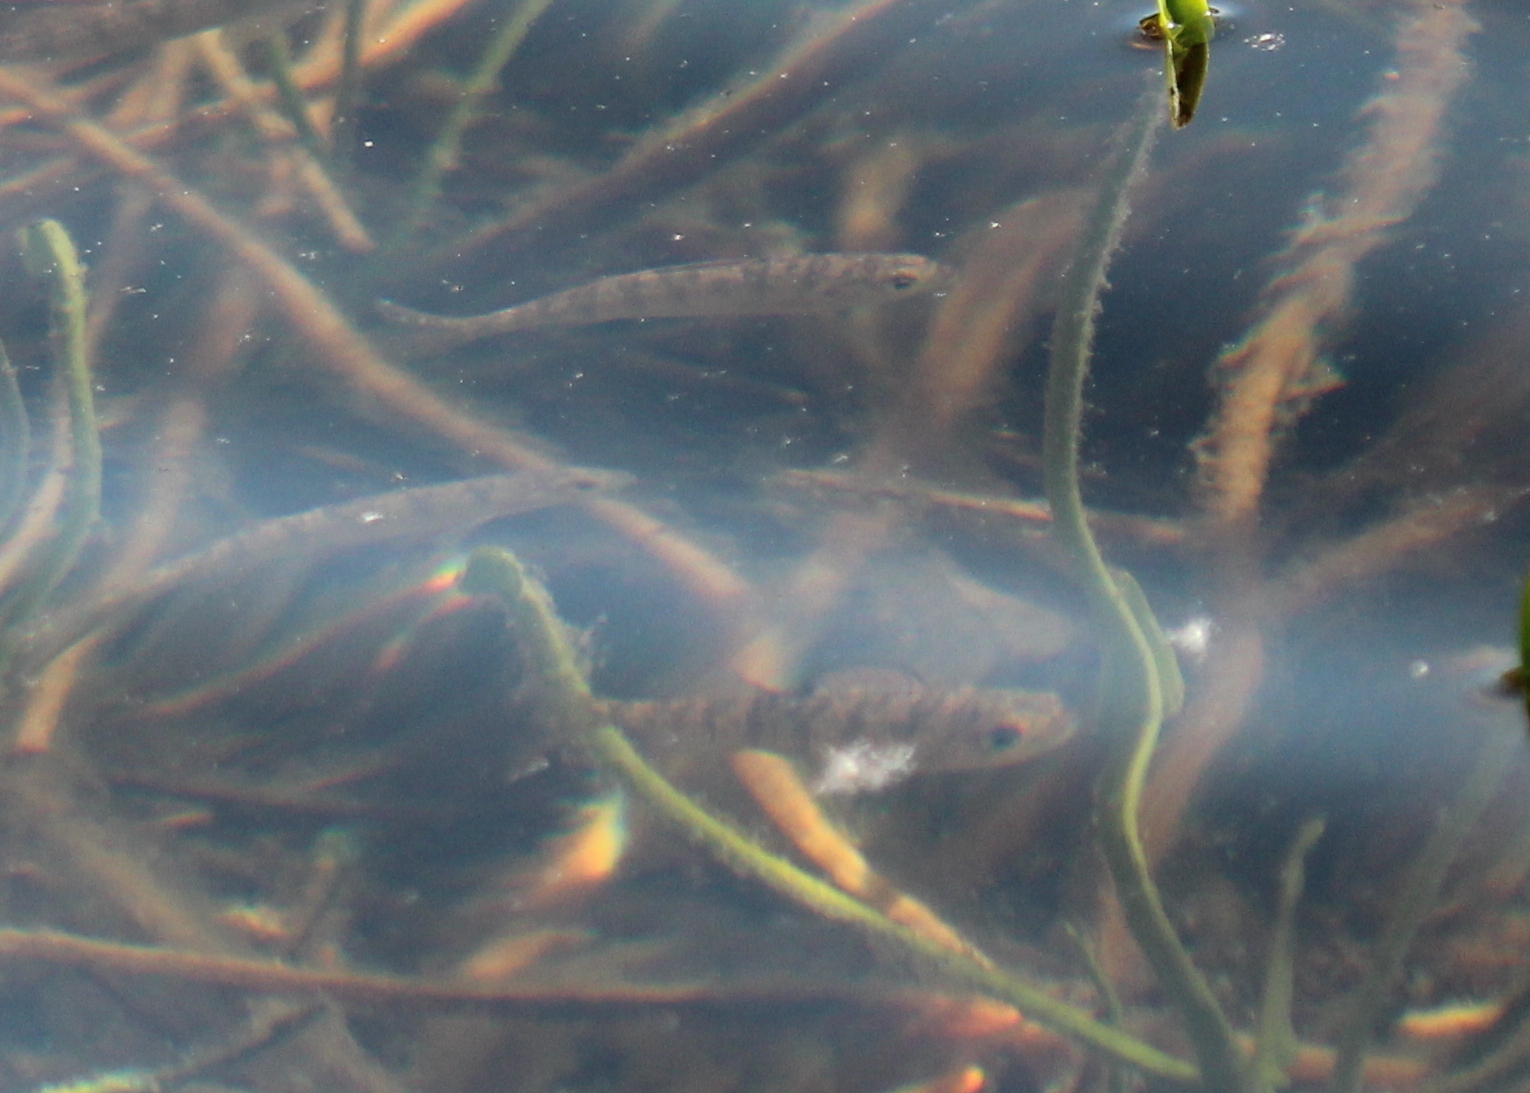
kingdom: Animalia
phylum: Chordata
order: Perciformes
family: Percidae
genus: Perca
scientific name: Perca flavescens
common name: Yellow perch
